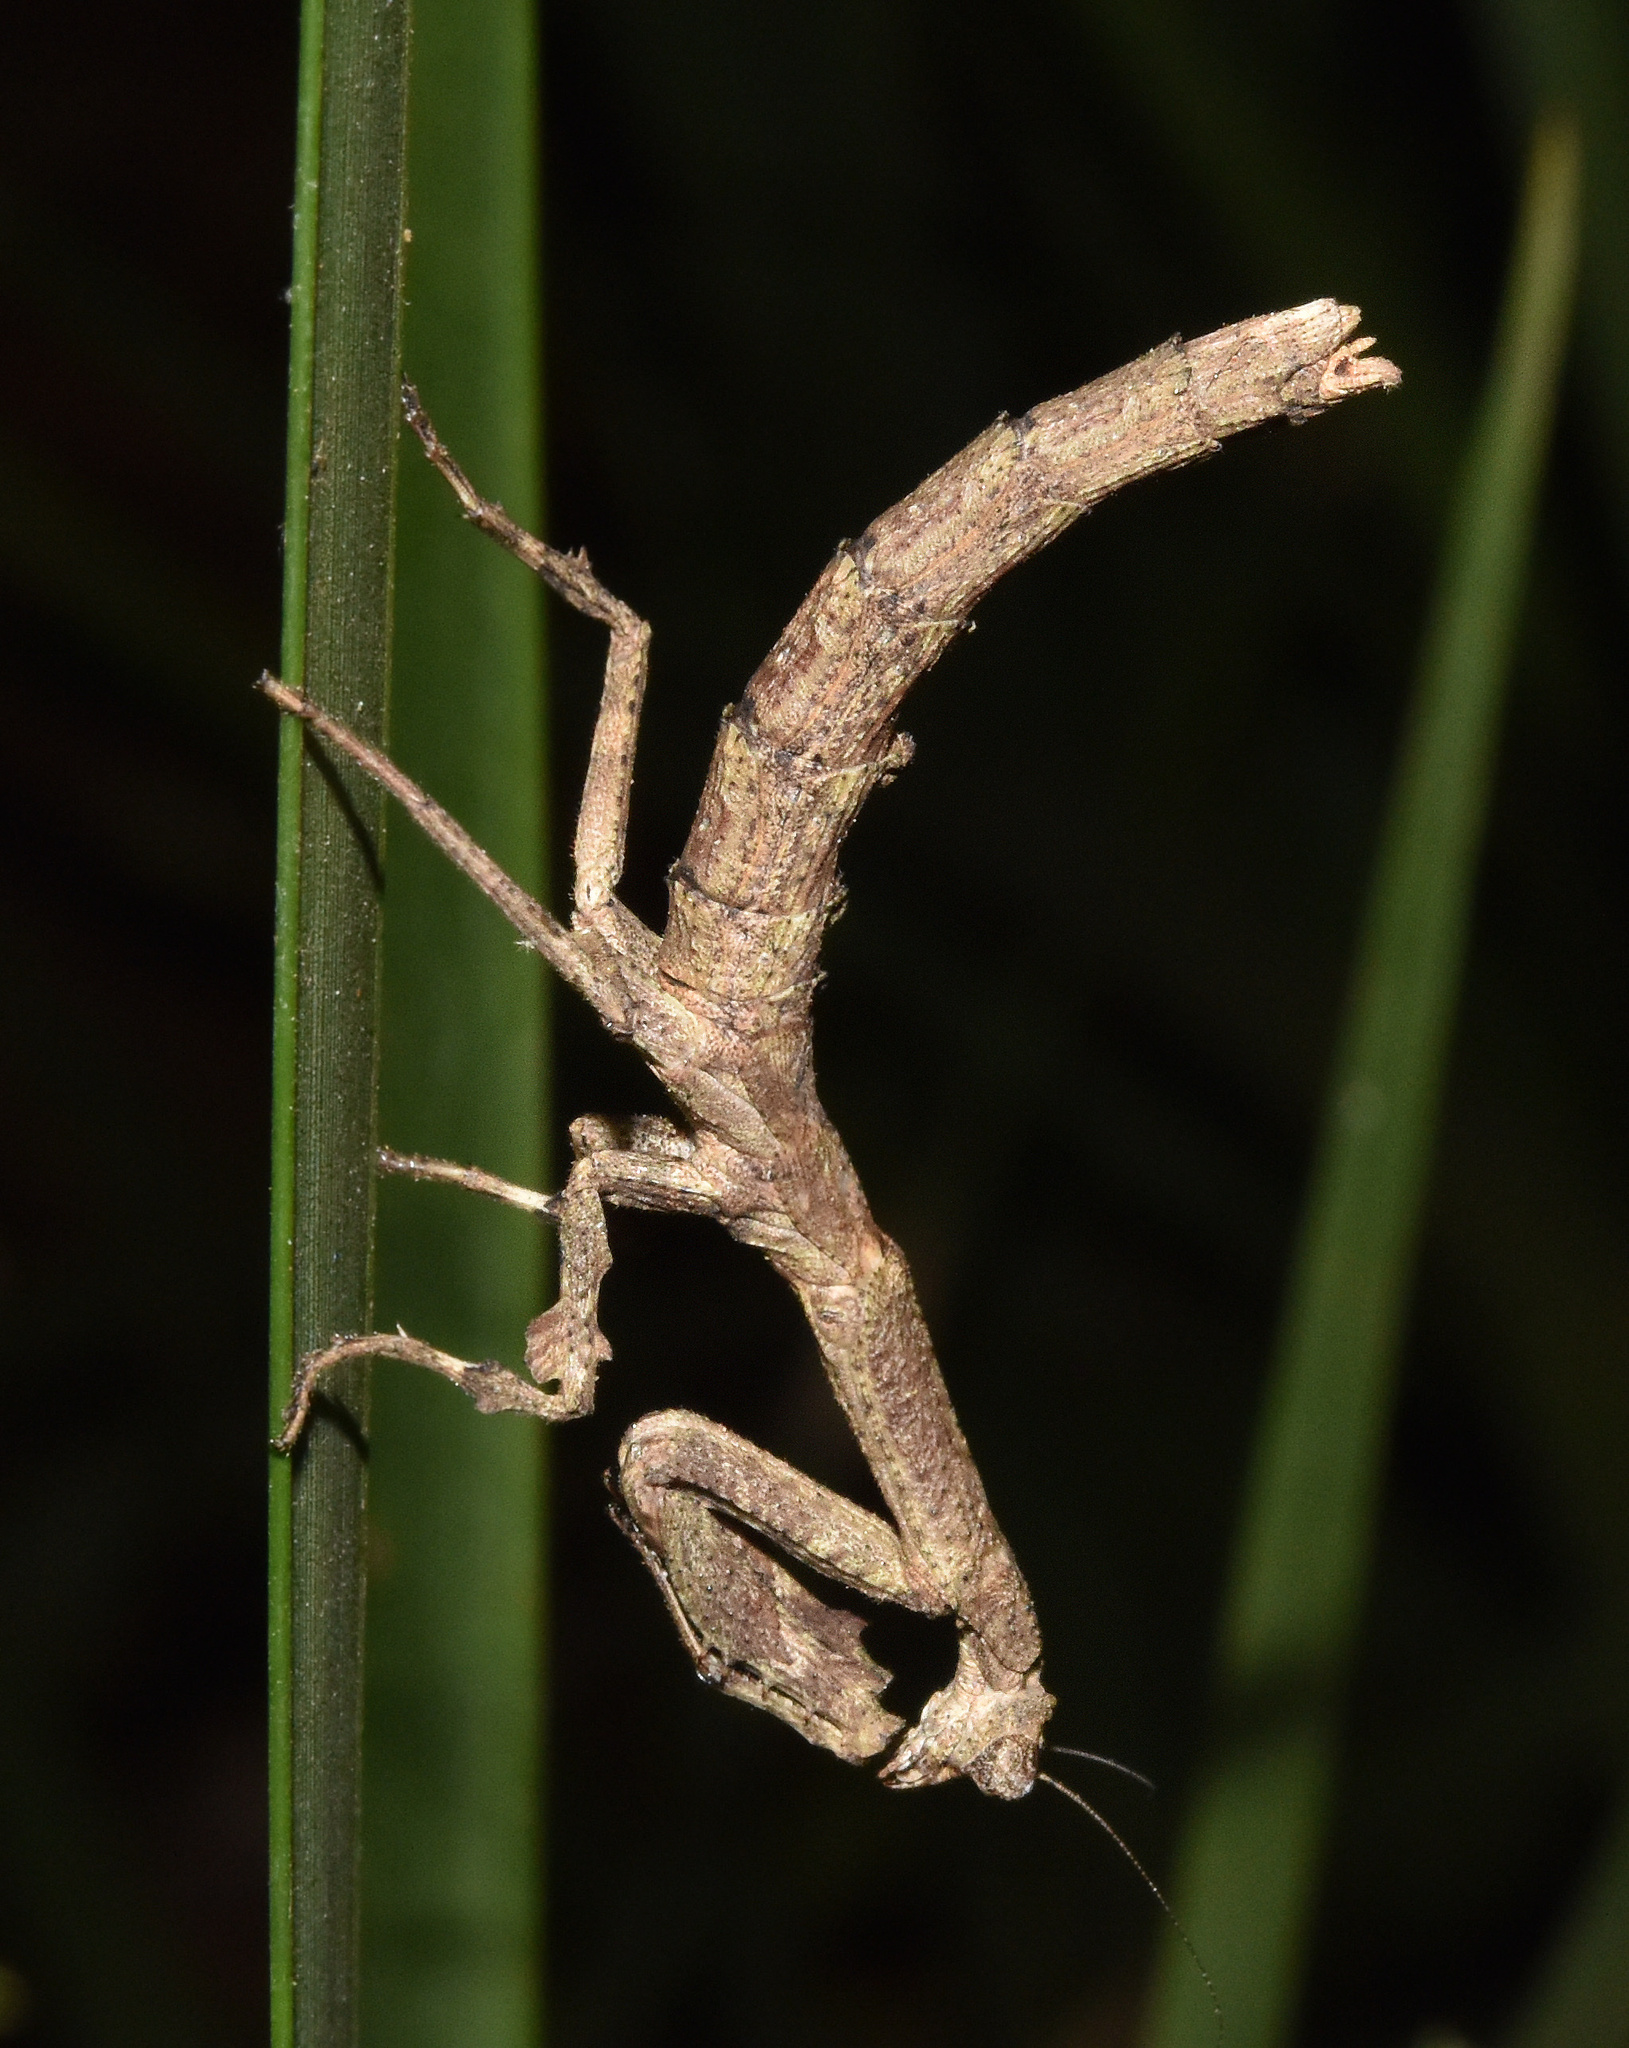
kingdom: Animalia
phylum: Arthropoda
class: Insecta
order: Mantodea
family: Deroplatyidae
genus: Popa
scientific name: Popa spurca
